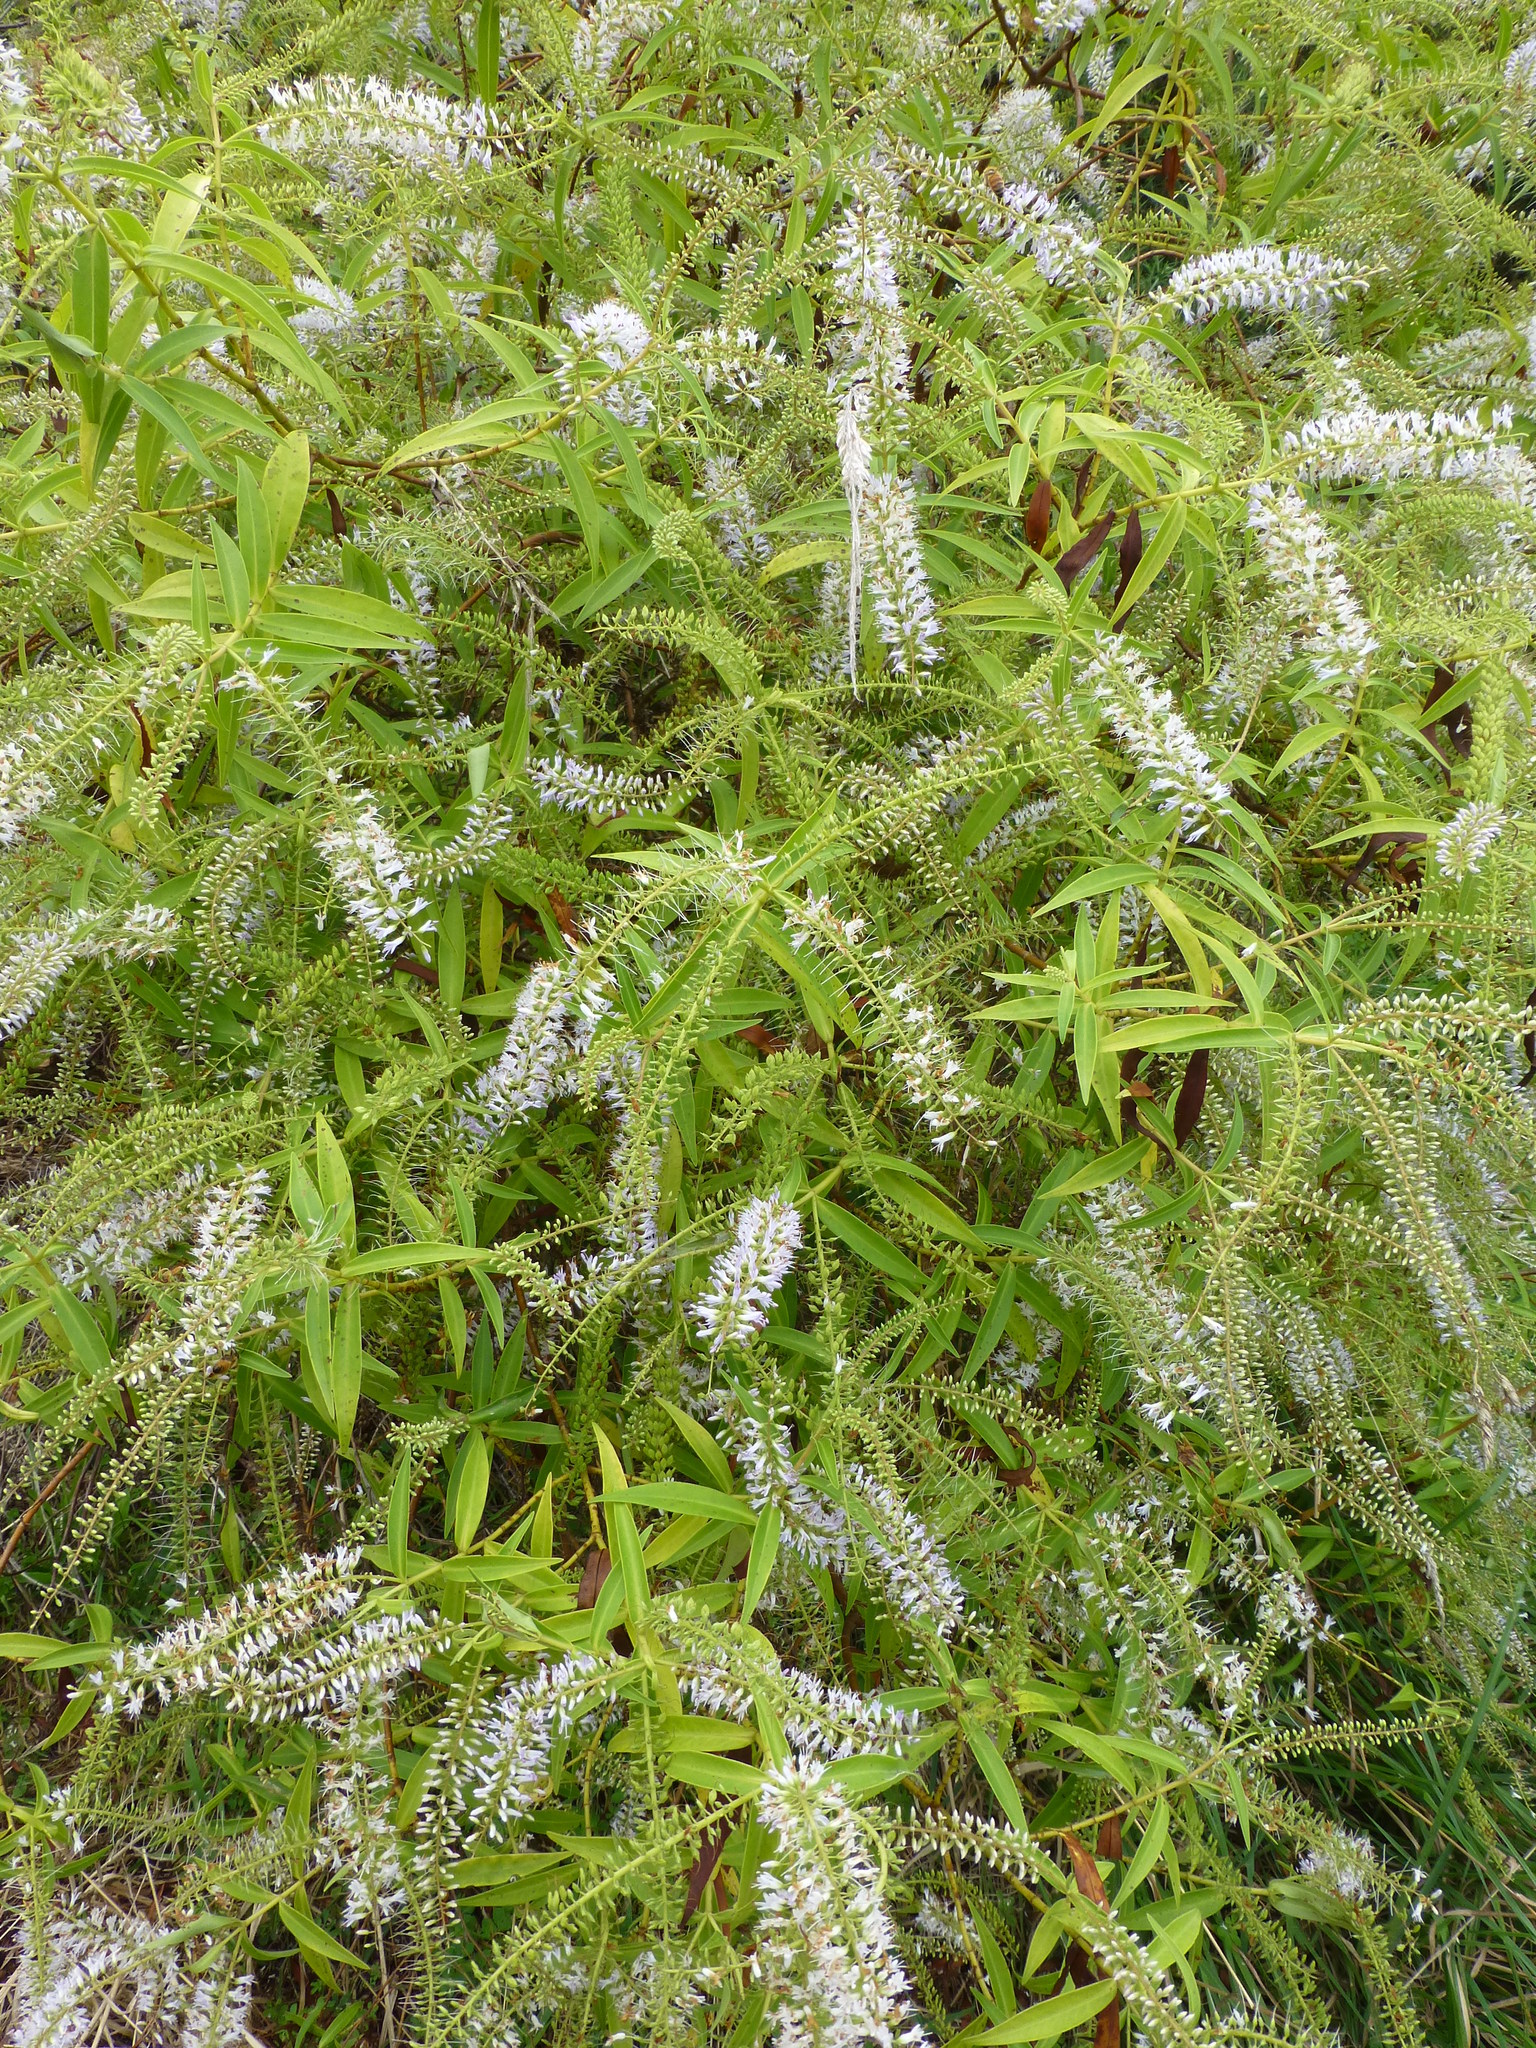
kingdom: Plantae
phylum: Tracheophyta
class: Magnoliopsida
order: Lamiales
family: Plantaginaceae
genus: Veronica
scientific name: Veronica salicifolia
